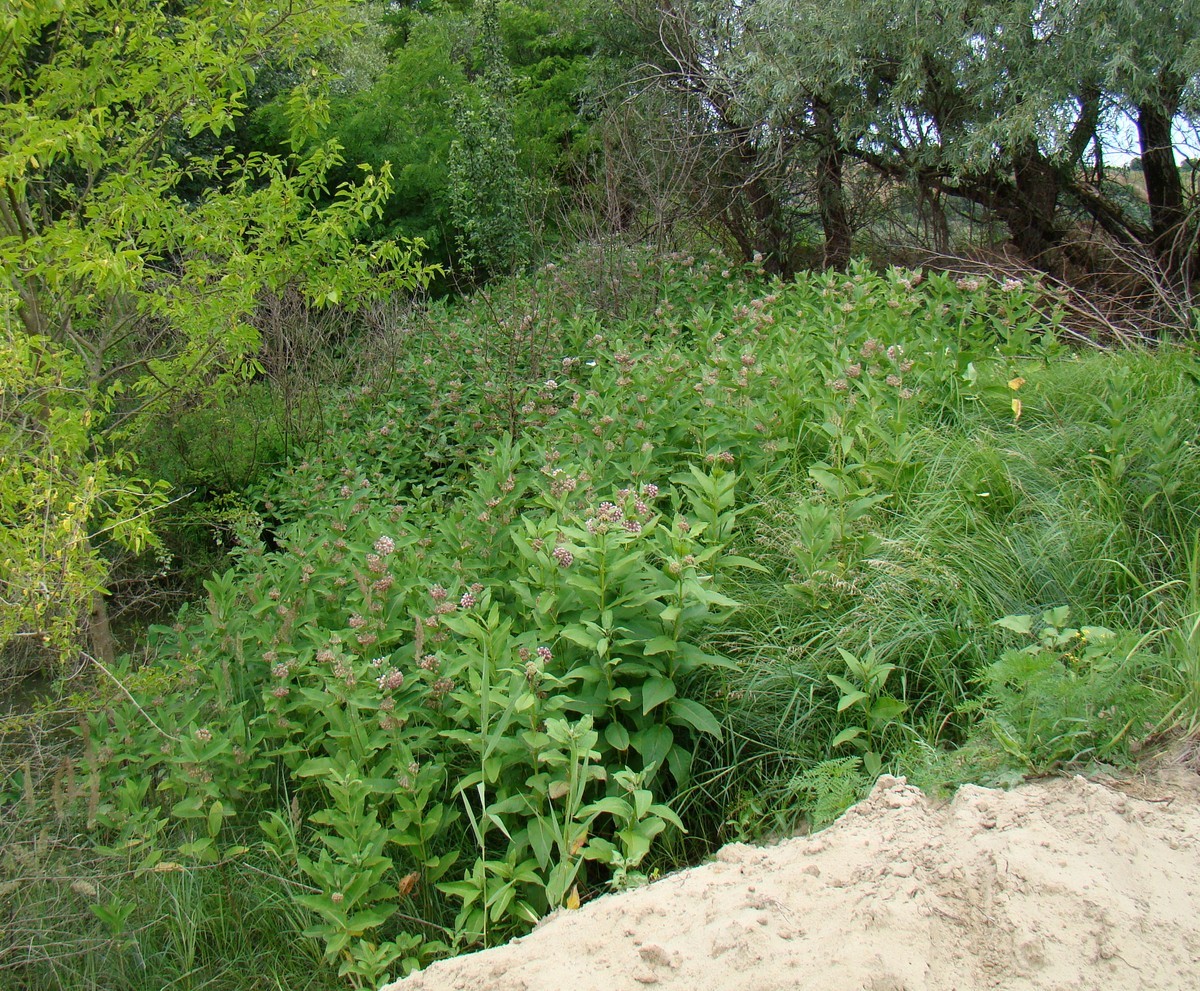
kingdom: Plantae
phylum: Tracheophyta
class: Magnoliopsida
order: Gentianales
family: Apocynaceae
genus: Asclepias
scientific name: Asclepias syriaca
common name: Common milkweed
